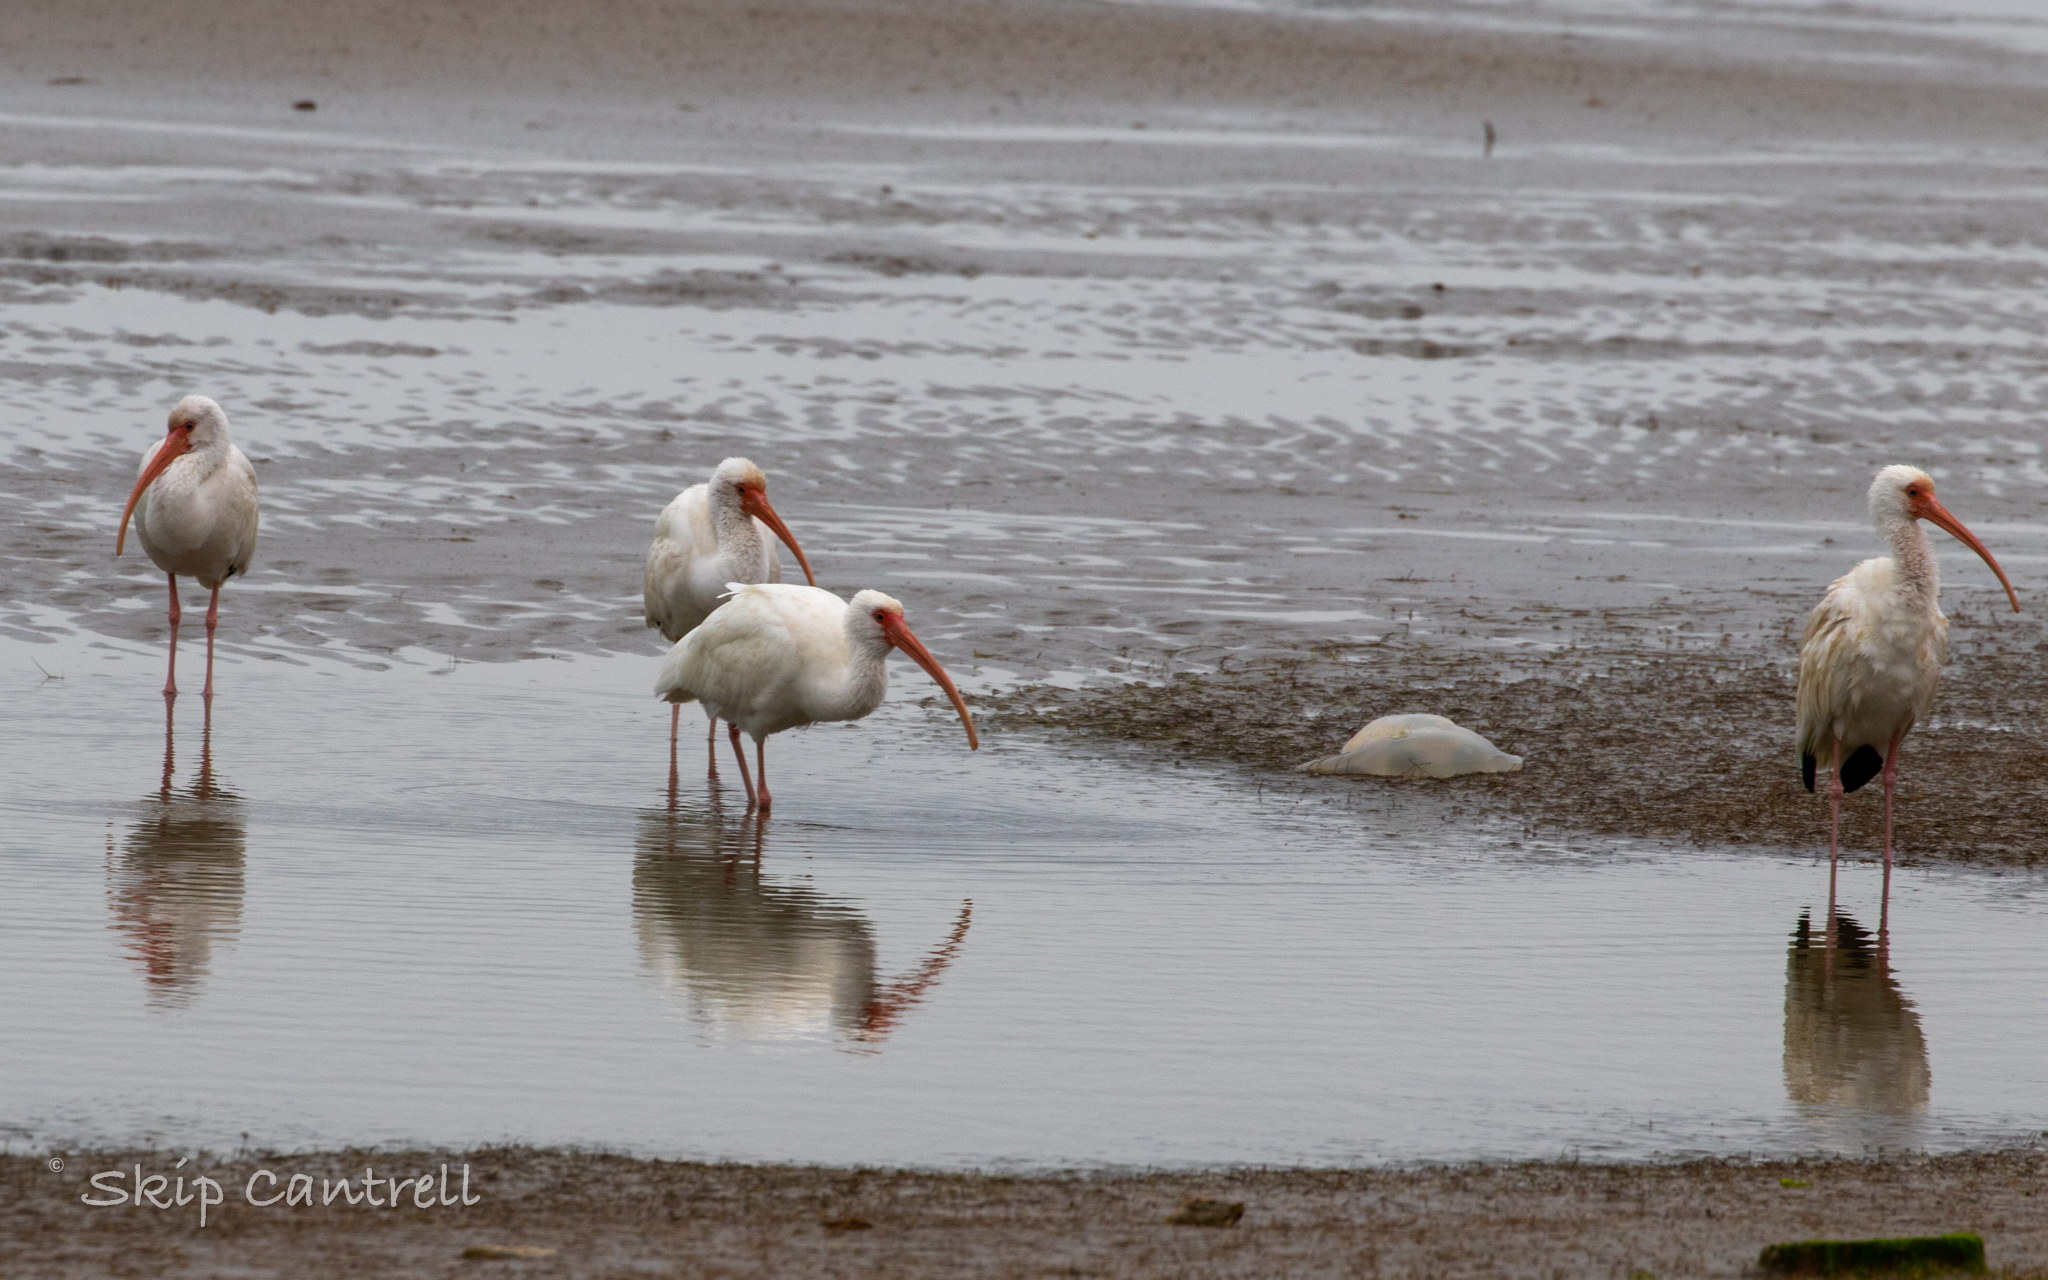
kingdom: Animalia
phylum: Chordata
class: Aves
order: Pelecaniformes
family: Threskiornithidae
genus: Eudocimus
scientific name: Eudocimus albus
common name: White ibis
